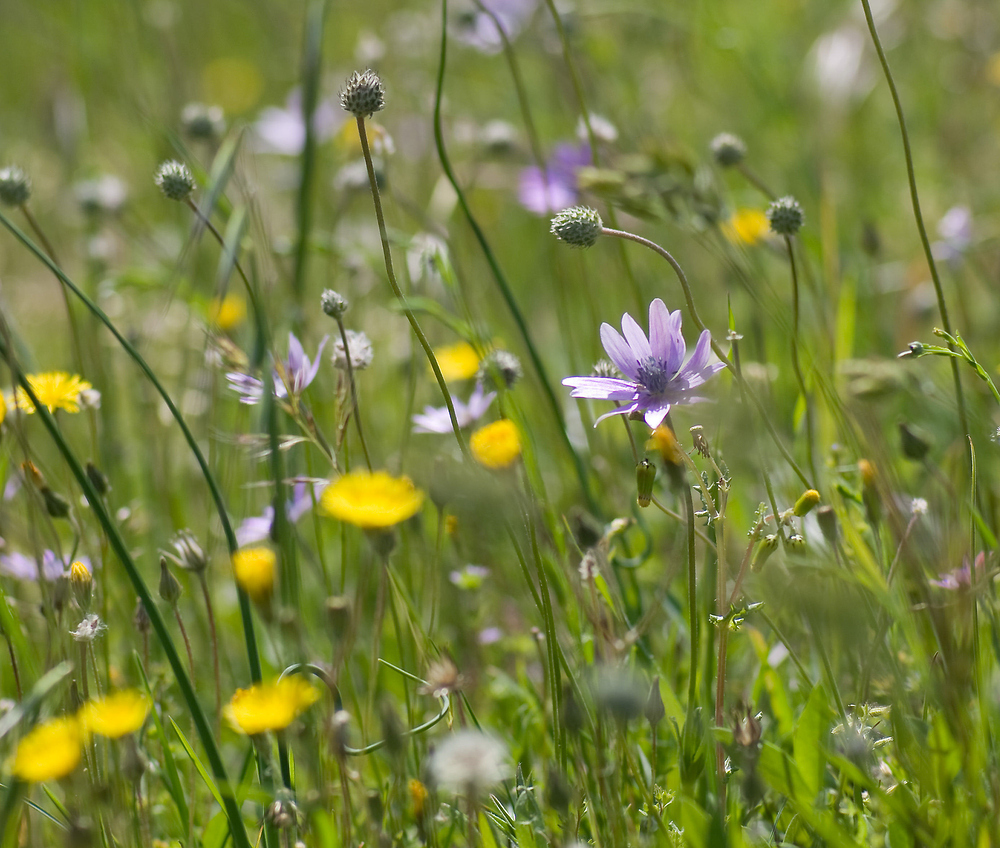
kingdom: Plantae
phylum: Tracheophyta
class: Magnoliopsida
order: Ranunculales
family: Ranunculaceae
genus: Anemone
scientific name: Anemone hortensis
